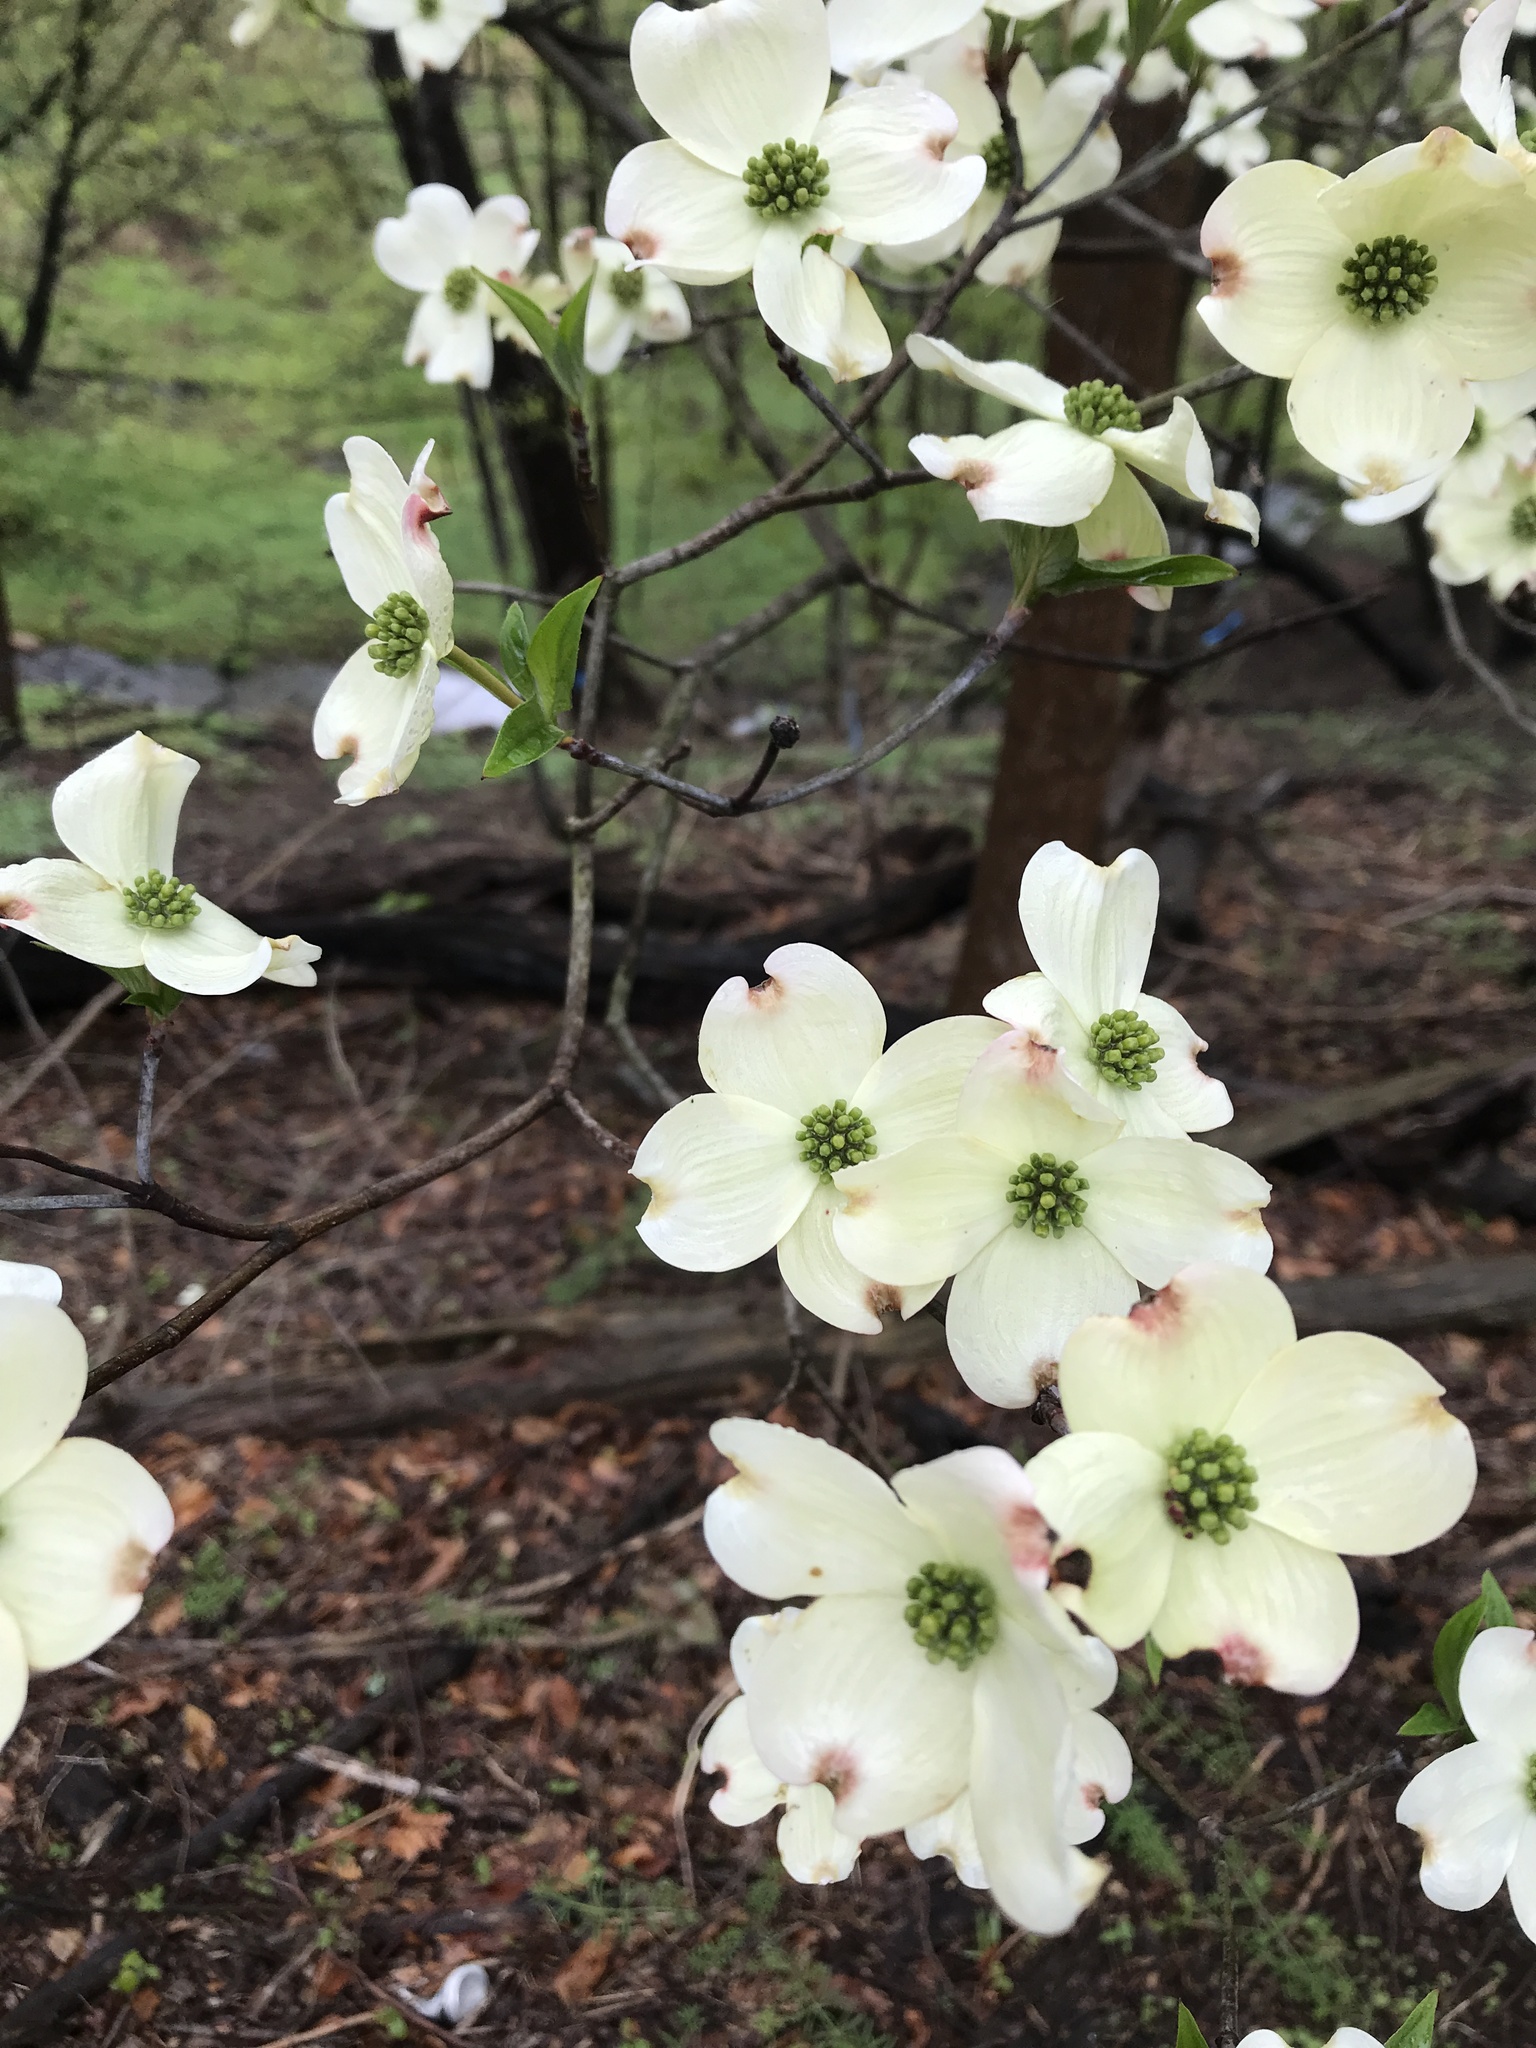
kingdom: Plantae
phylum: Tracheophyta
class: Magnoliopsida
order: Cornales
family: Cornaceae
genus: Cornus
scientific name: Cornus florida
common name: Flowering dogwood
